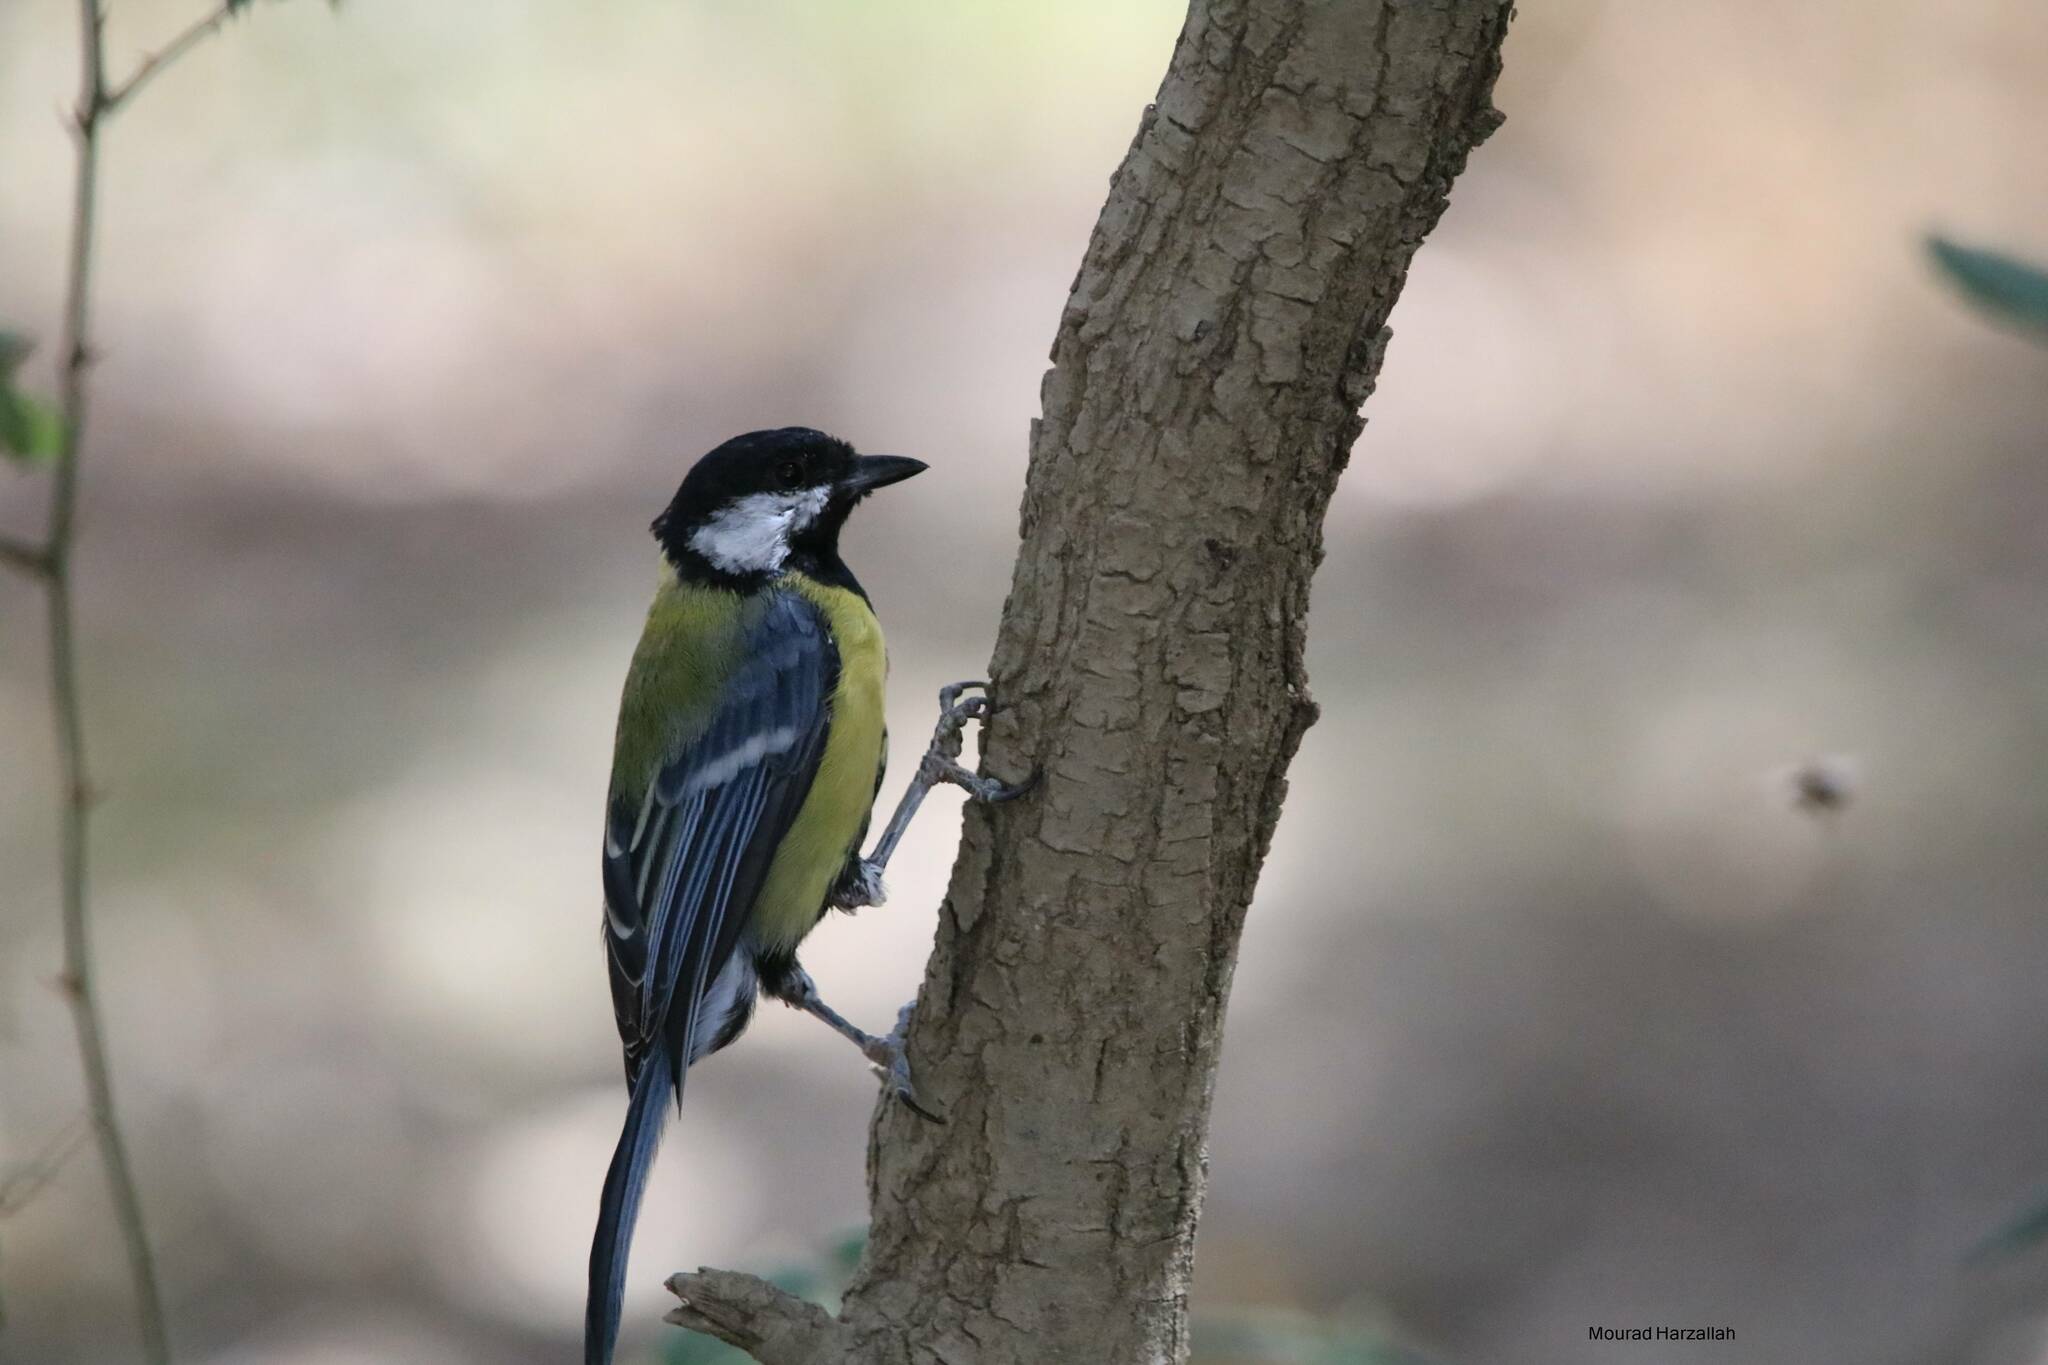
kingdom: Animalia
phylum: Chordata
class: Aves
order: Passeriformes
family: Paridae
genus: Parus
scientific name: Parus major
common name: Great tit
